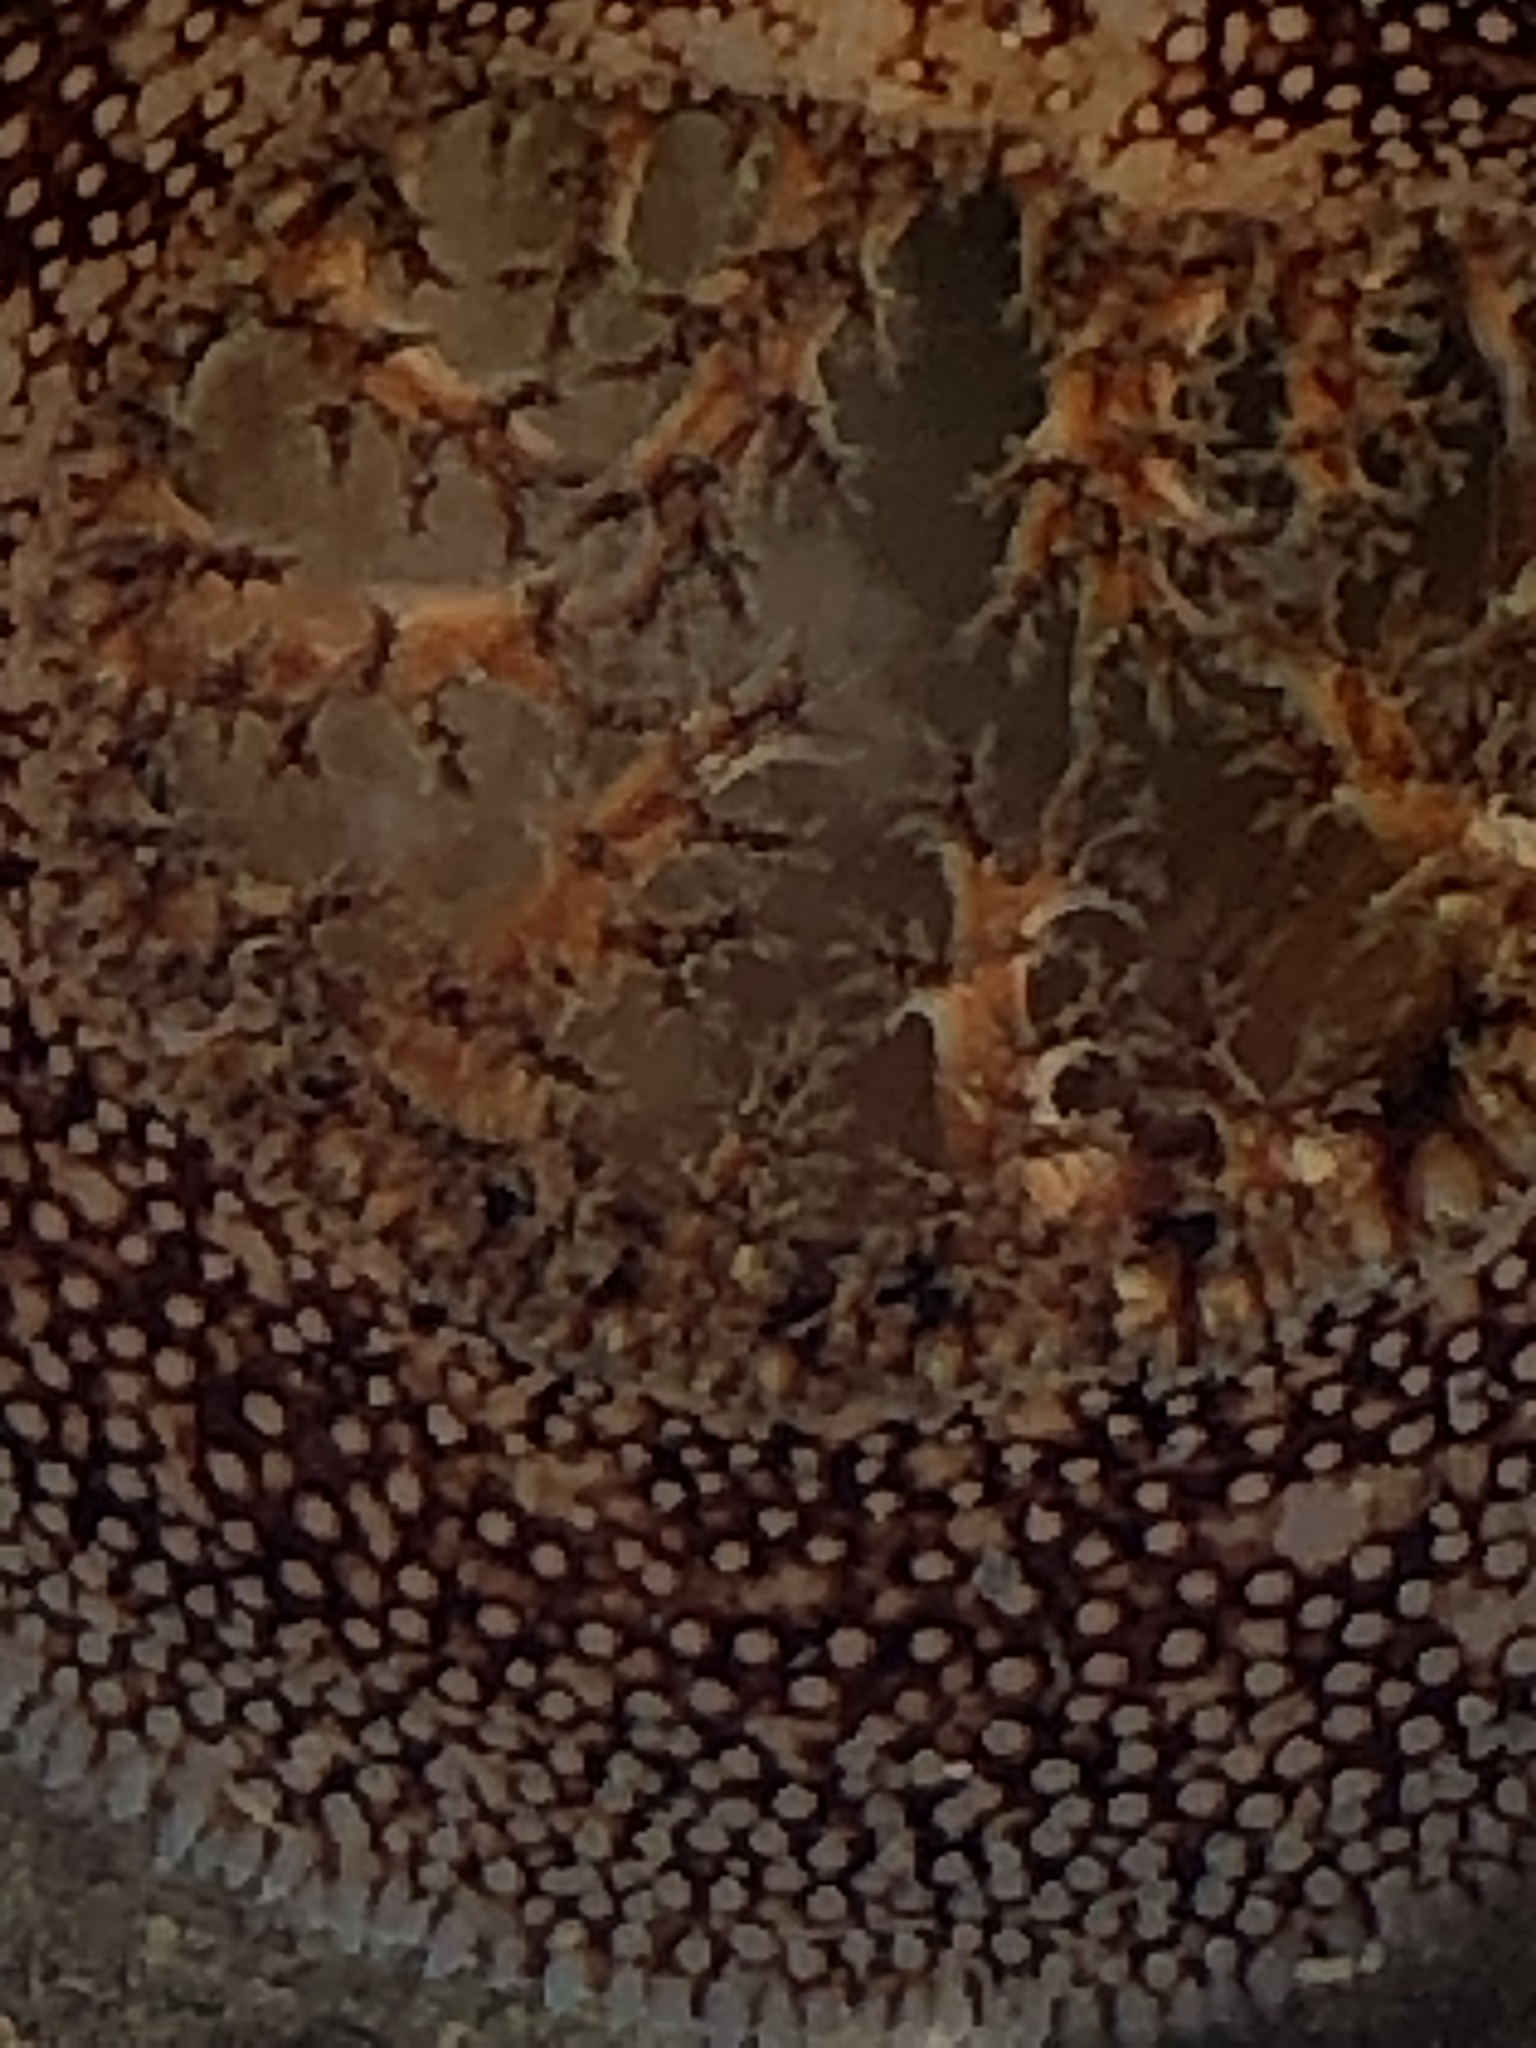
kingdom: Animalia
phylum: Mollusca
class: Bivalvia
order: Myida
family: Pholadidae
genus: Parapholas
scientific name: Parapholas californica
